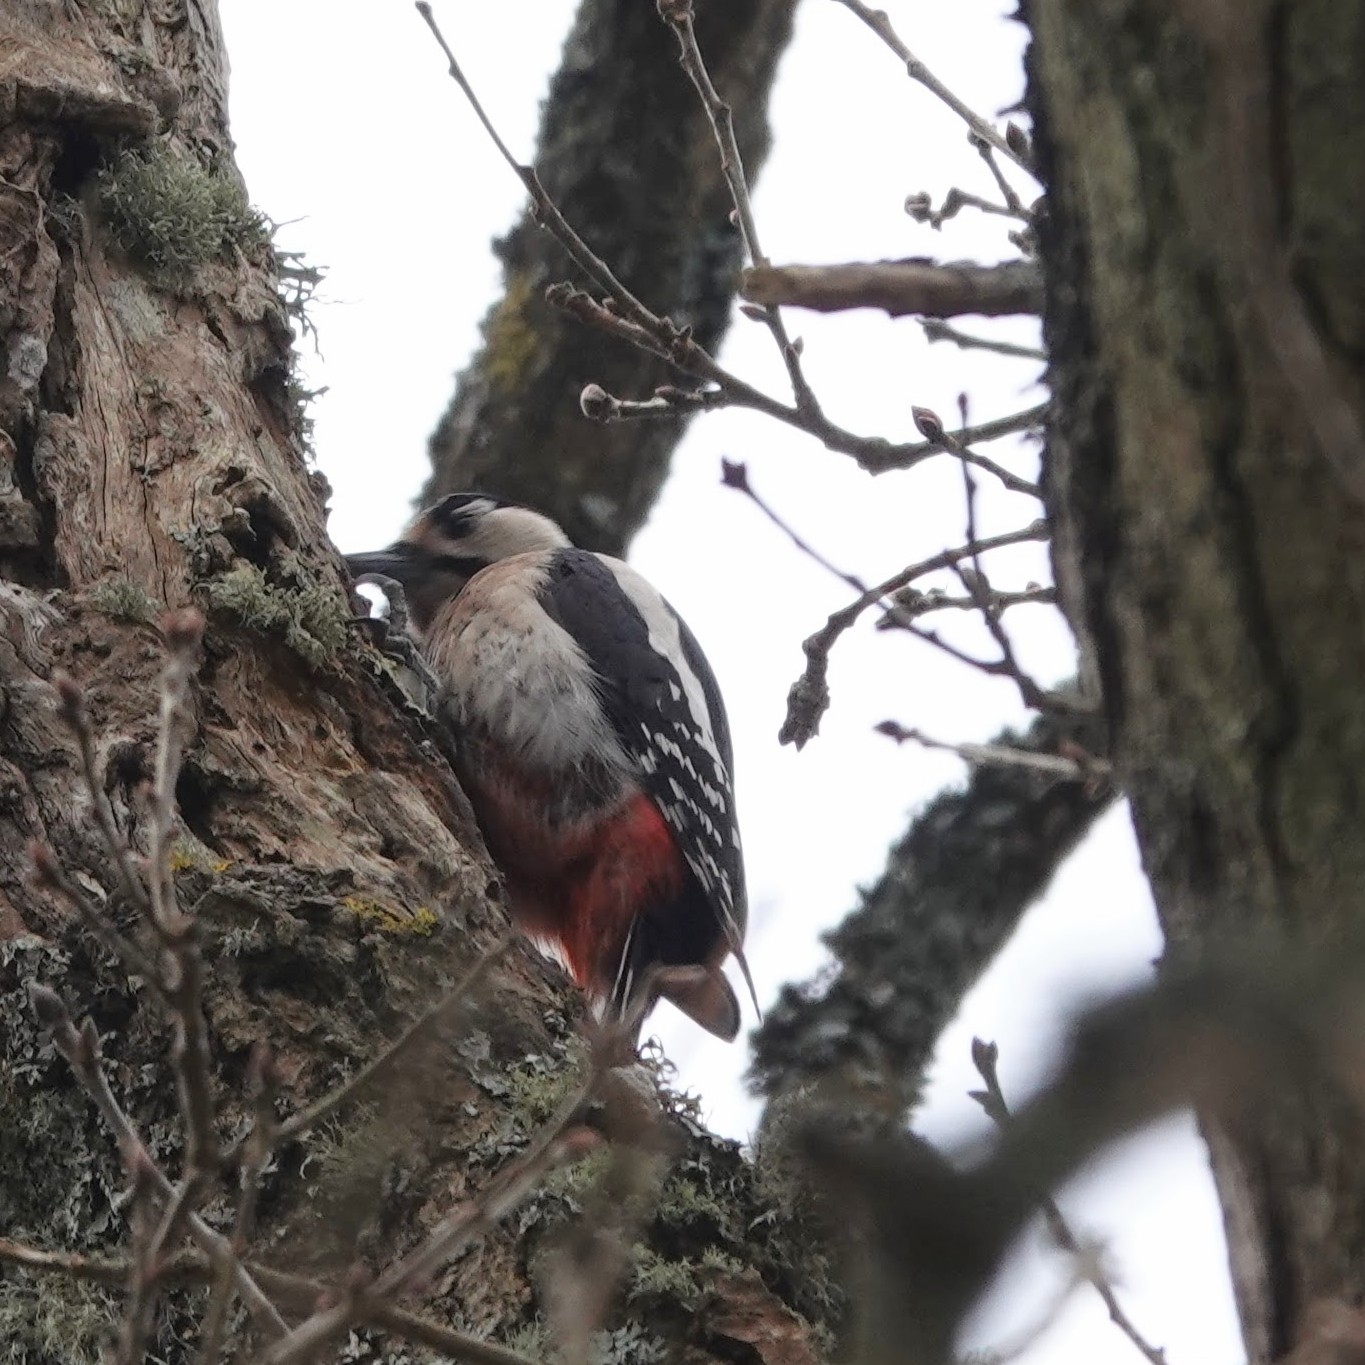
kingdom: Animalia
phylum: Chordata
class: Aves
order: Piciformes
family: Picidae
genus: Dendrocopos
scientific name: Dendrocopos major
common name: Great spotted woodpecker
